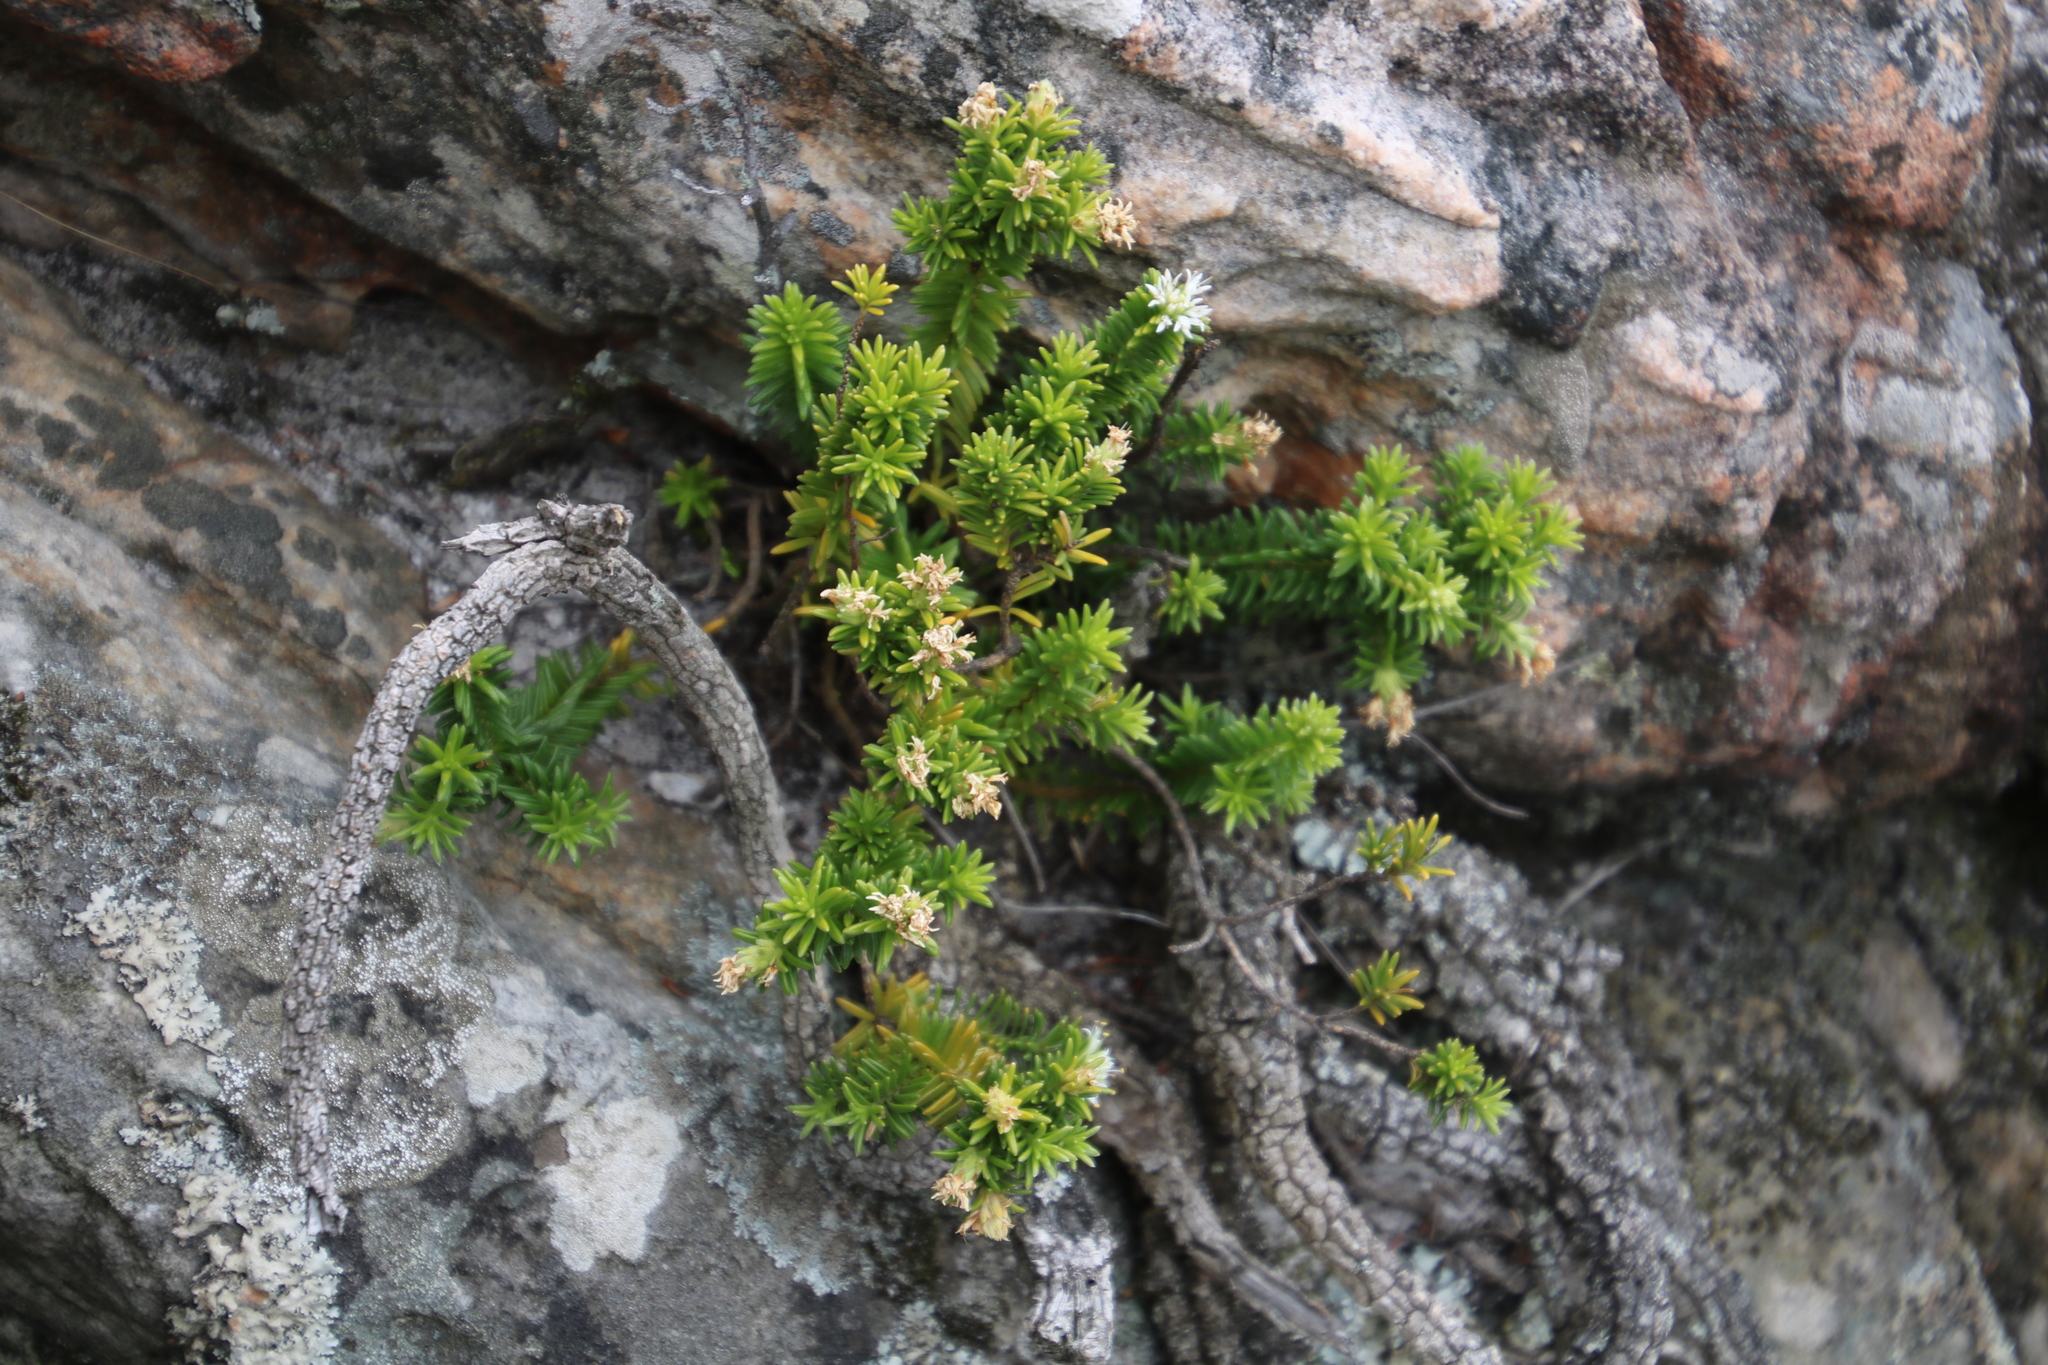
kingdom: Plantae
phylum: Tracheophyta
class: Magnoliopsida
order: Lamiales
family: Stilbaceae
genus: Stilbe
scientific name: Stilbe rupestris
